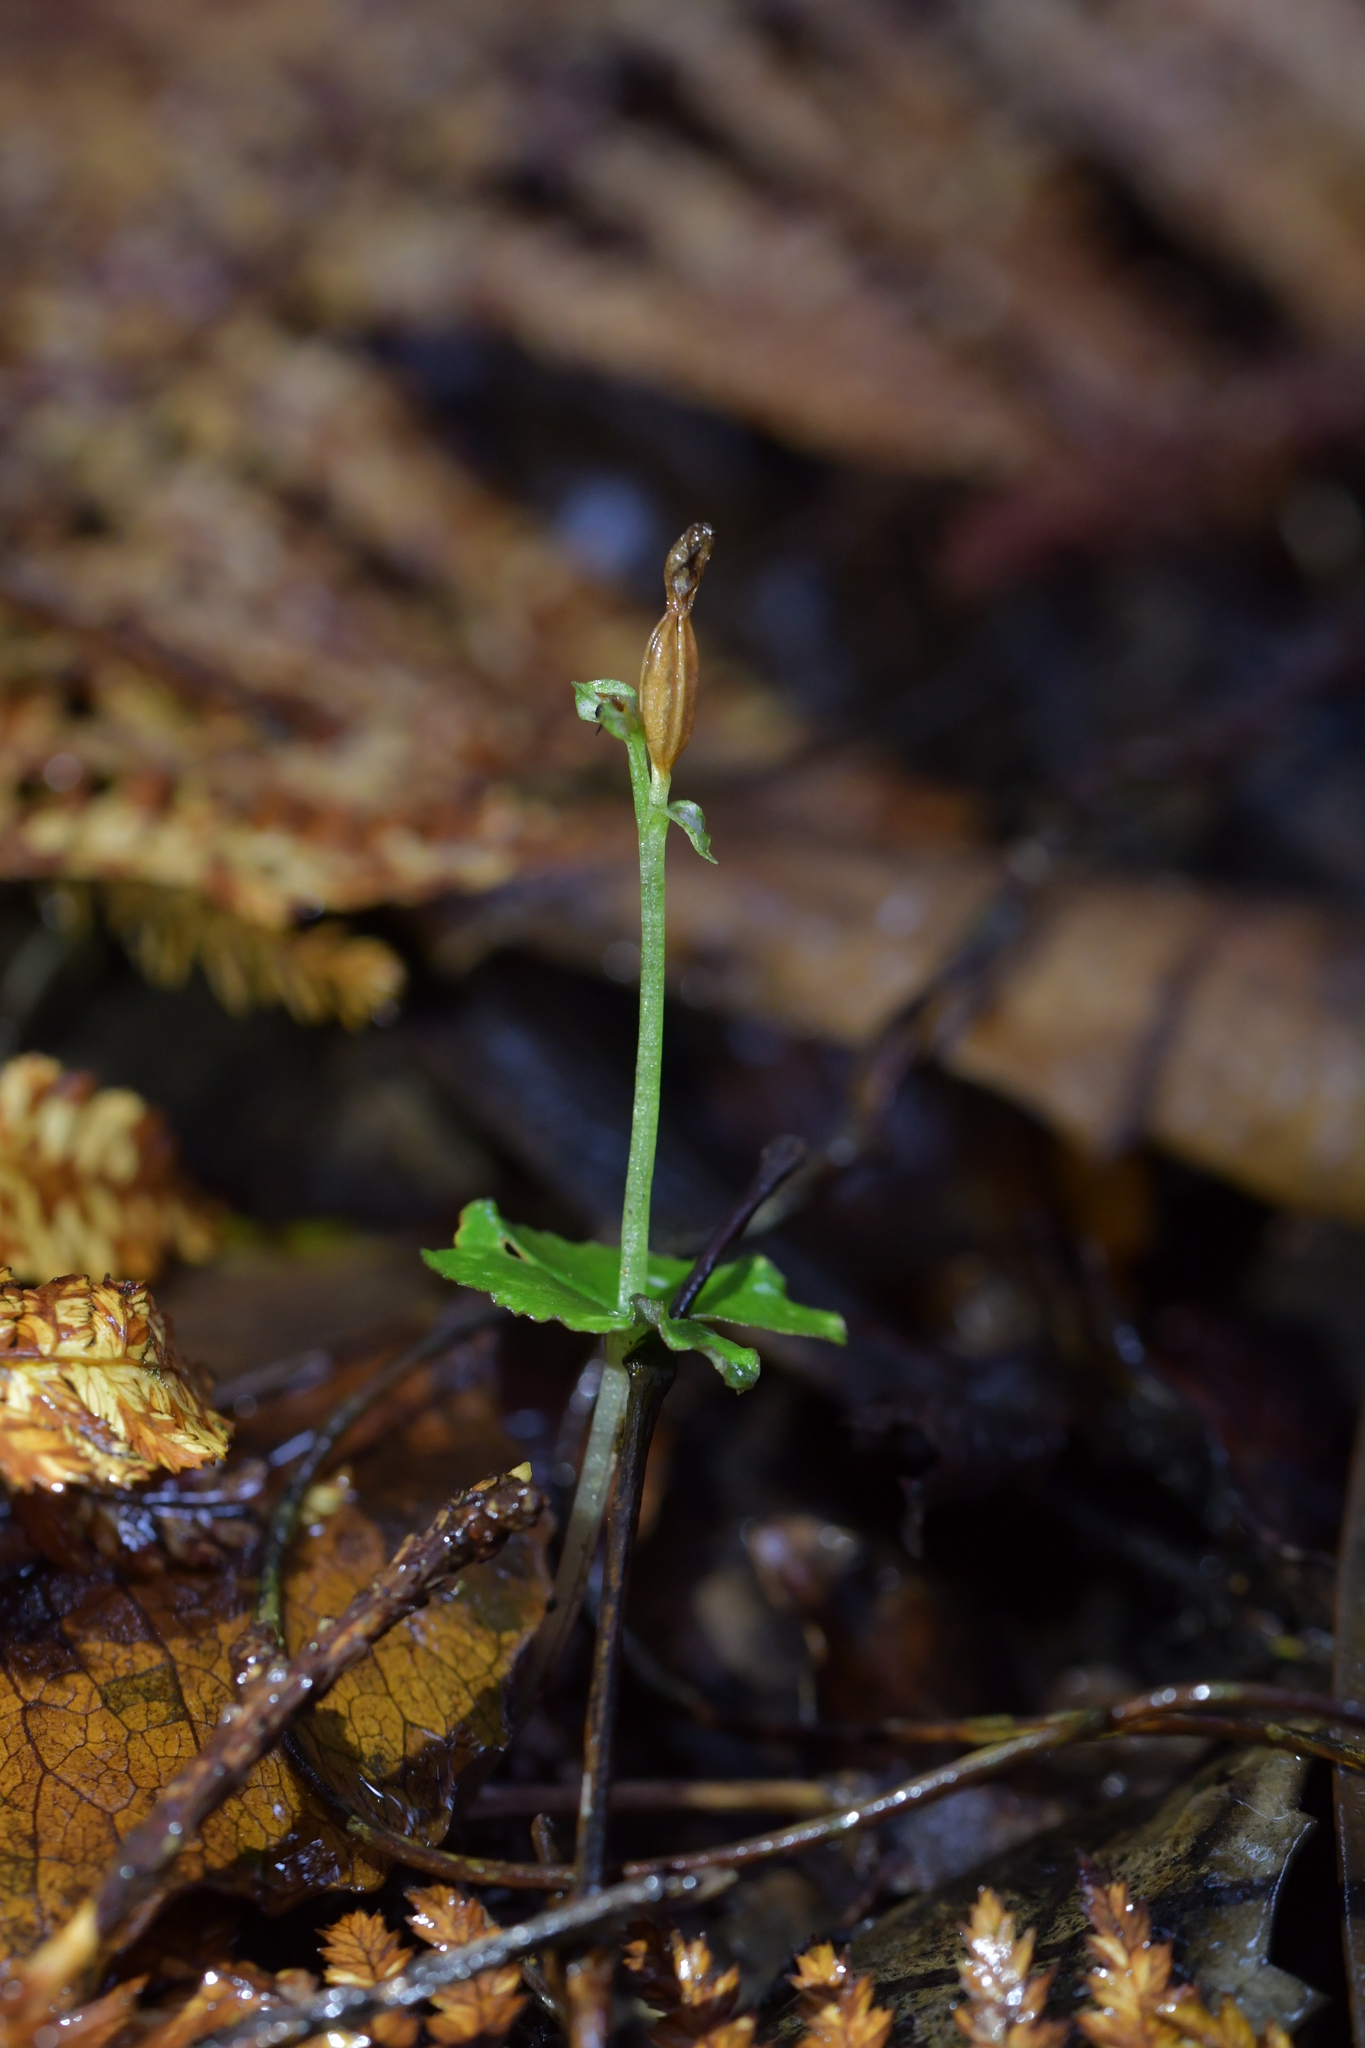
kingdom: Plantae
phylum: Tracheophyta
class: Liliopsida
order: Asparagales
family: Orchidaceae
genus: Acianthus
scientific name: Acianthus sinclairii
